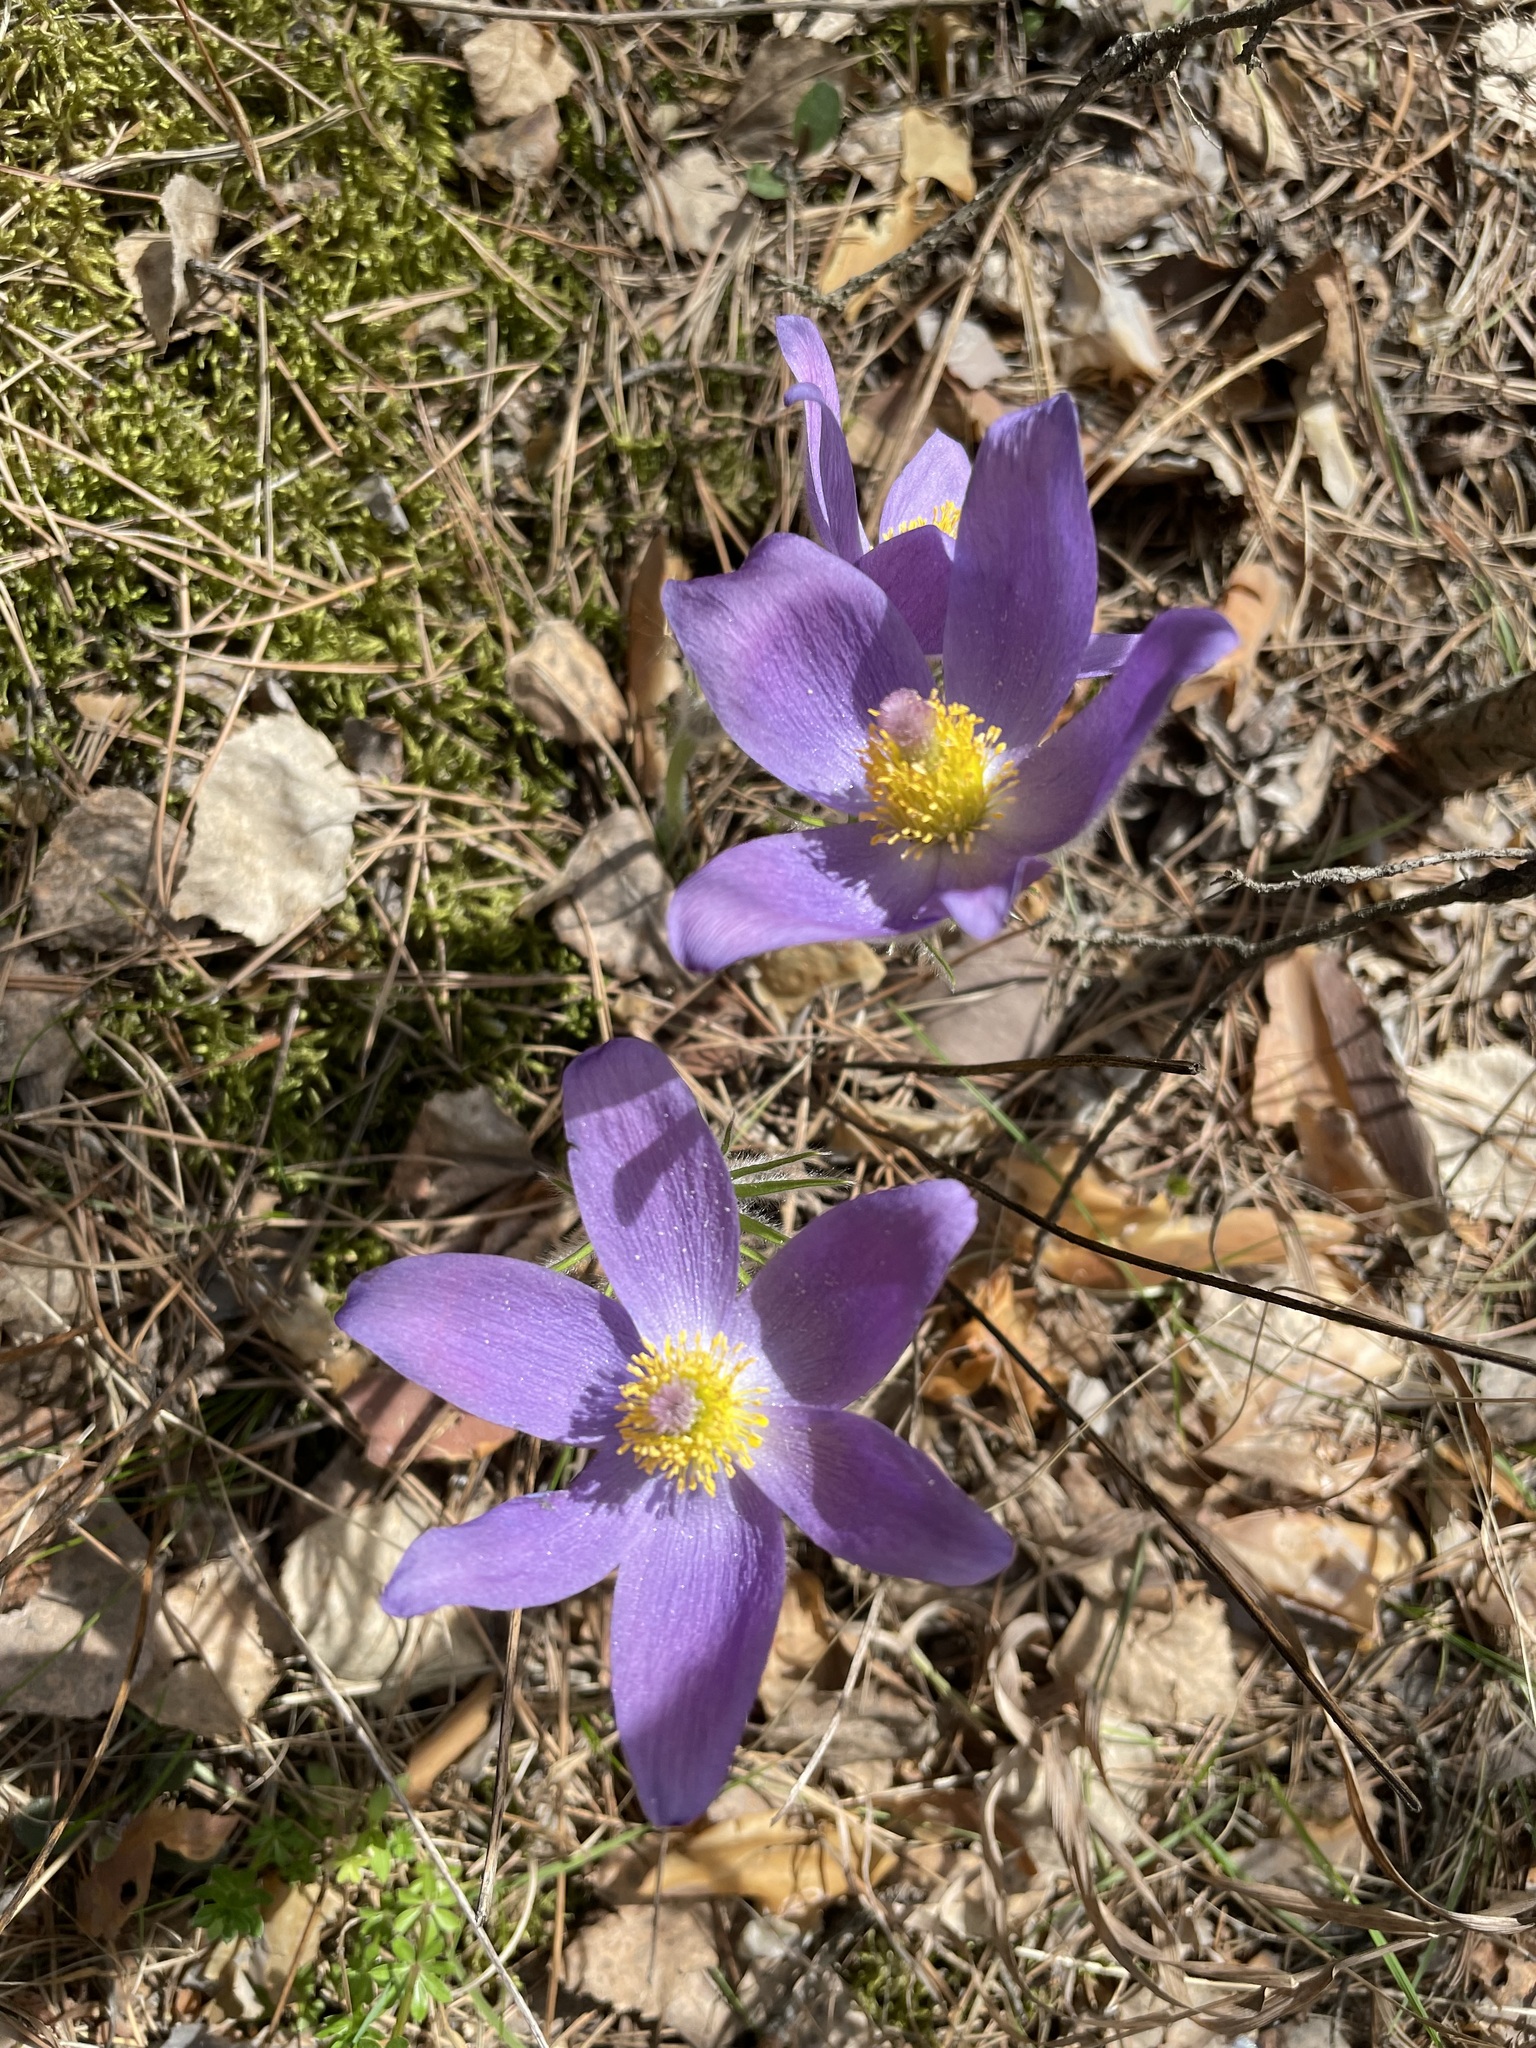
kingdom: Plantae
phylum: Tracheophyta
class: Magnoliopsida
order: Ranunculales
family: Ranunculaceae
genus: Pulsatilla
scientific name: Pulsatilla patens
